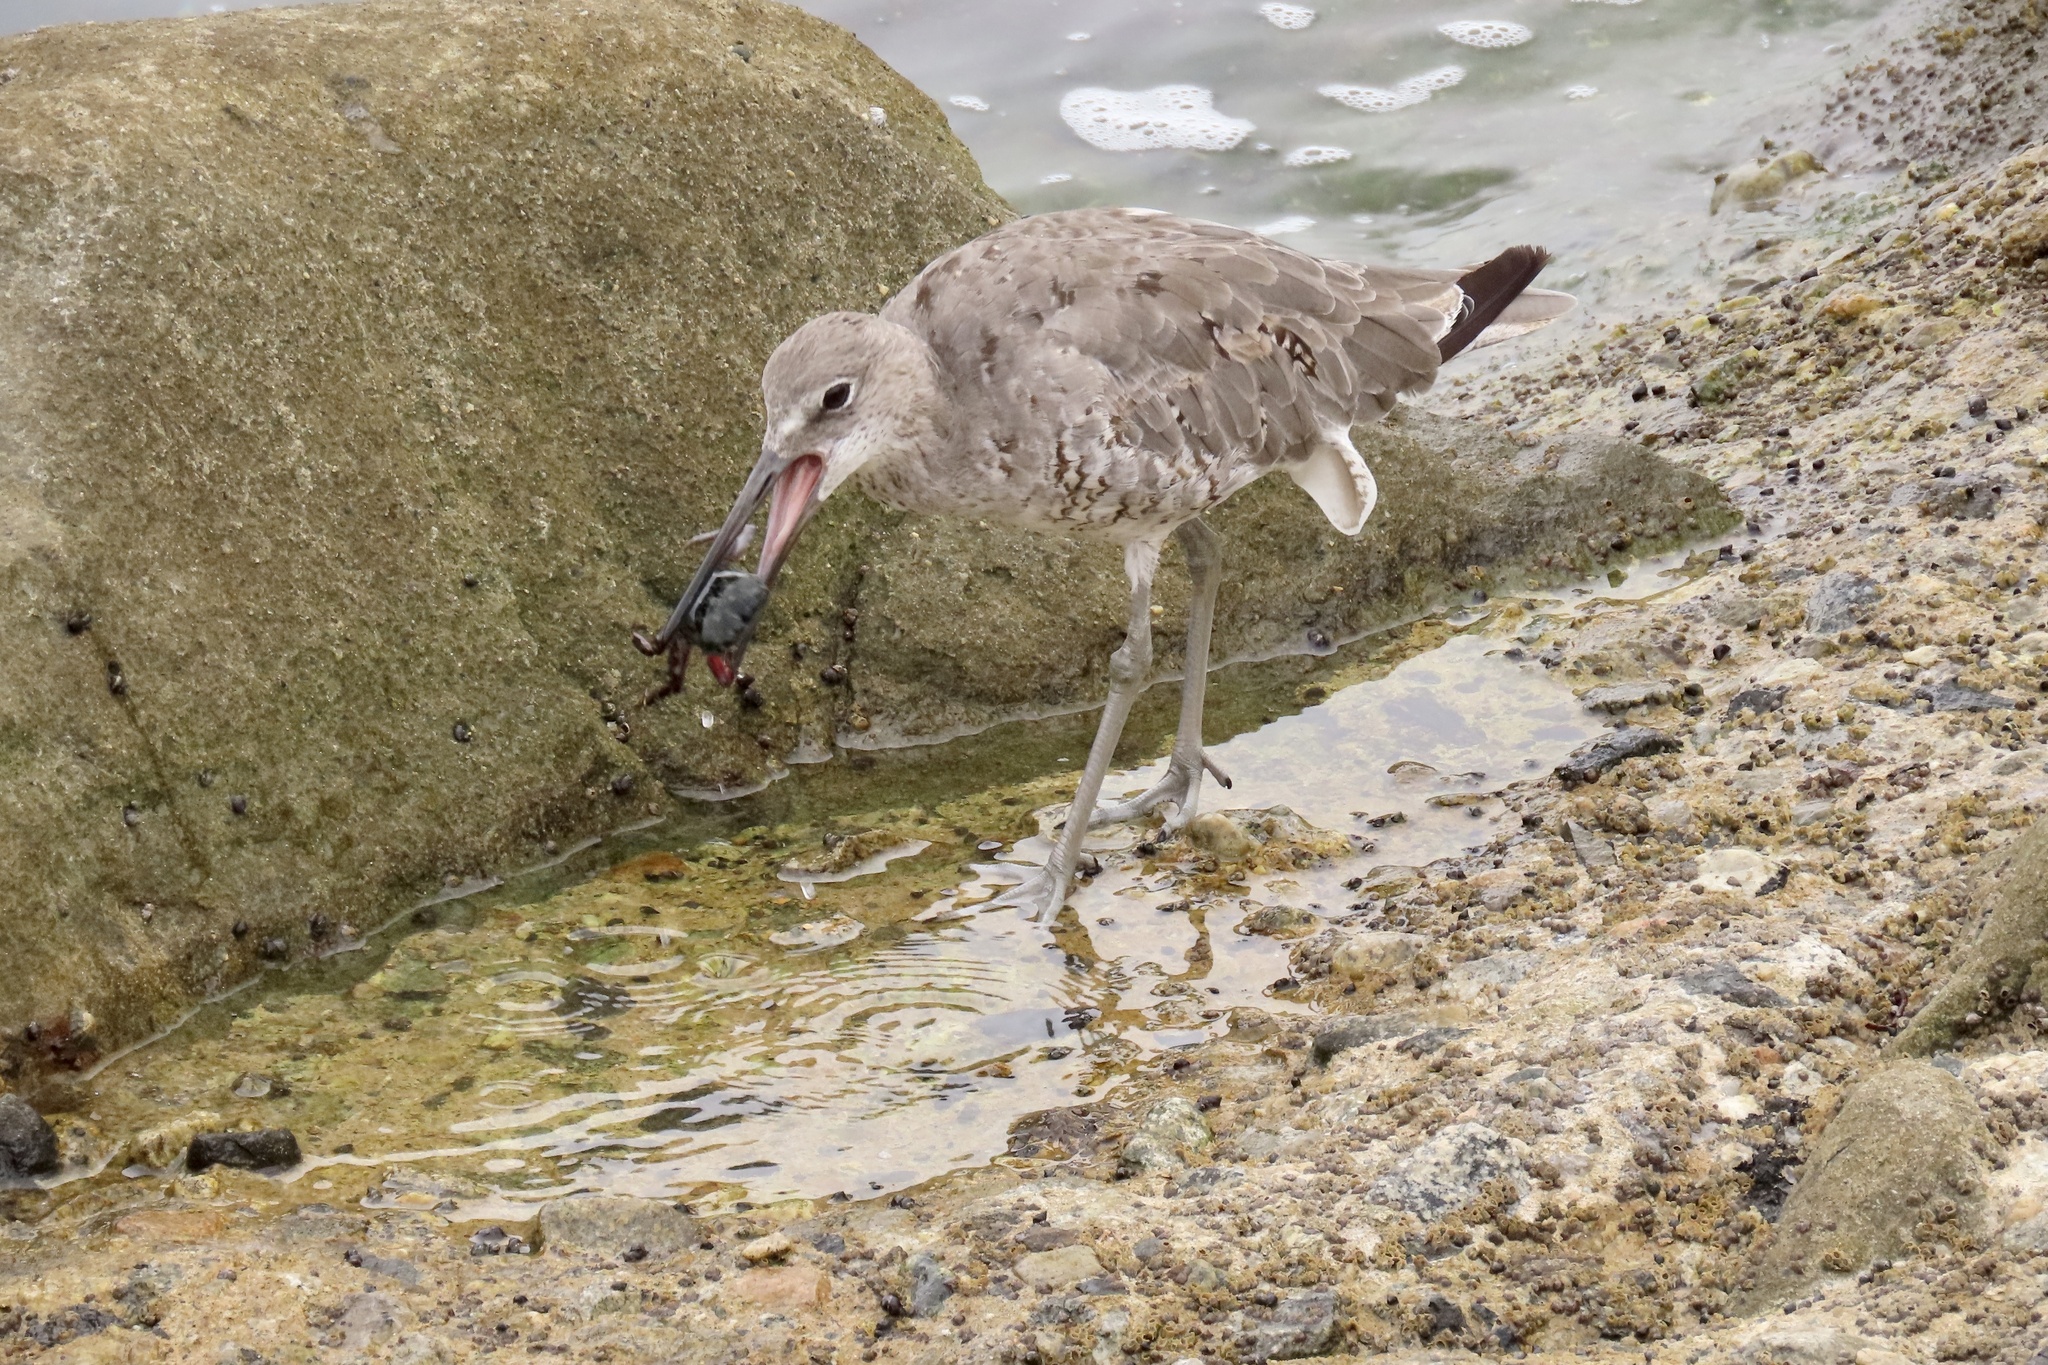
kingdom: Animalia
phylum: Chordata
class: Aves
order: Charadriiformes
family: Scolopacidae
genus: Tringa
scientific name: Tringa semipalmata
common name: Willet
